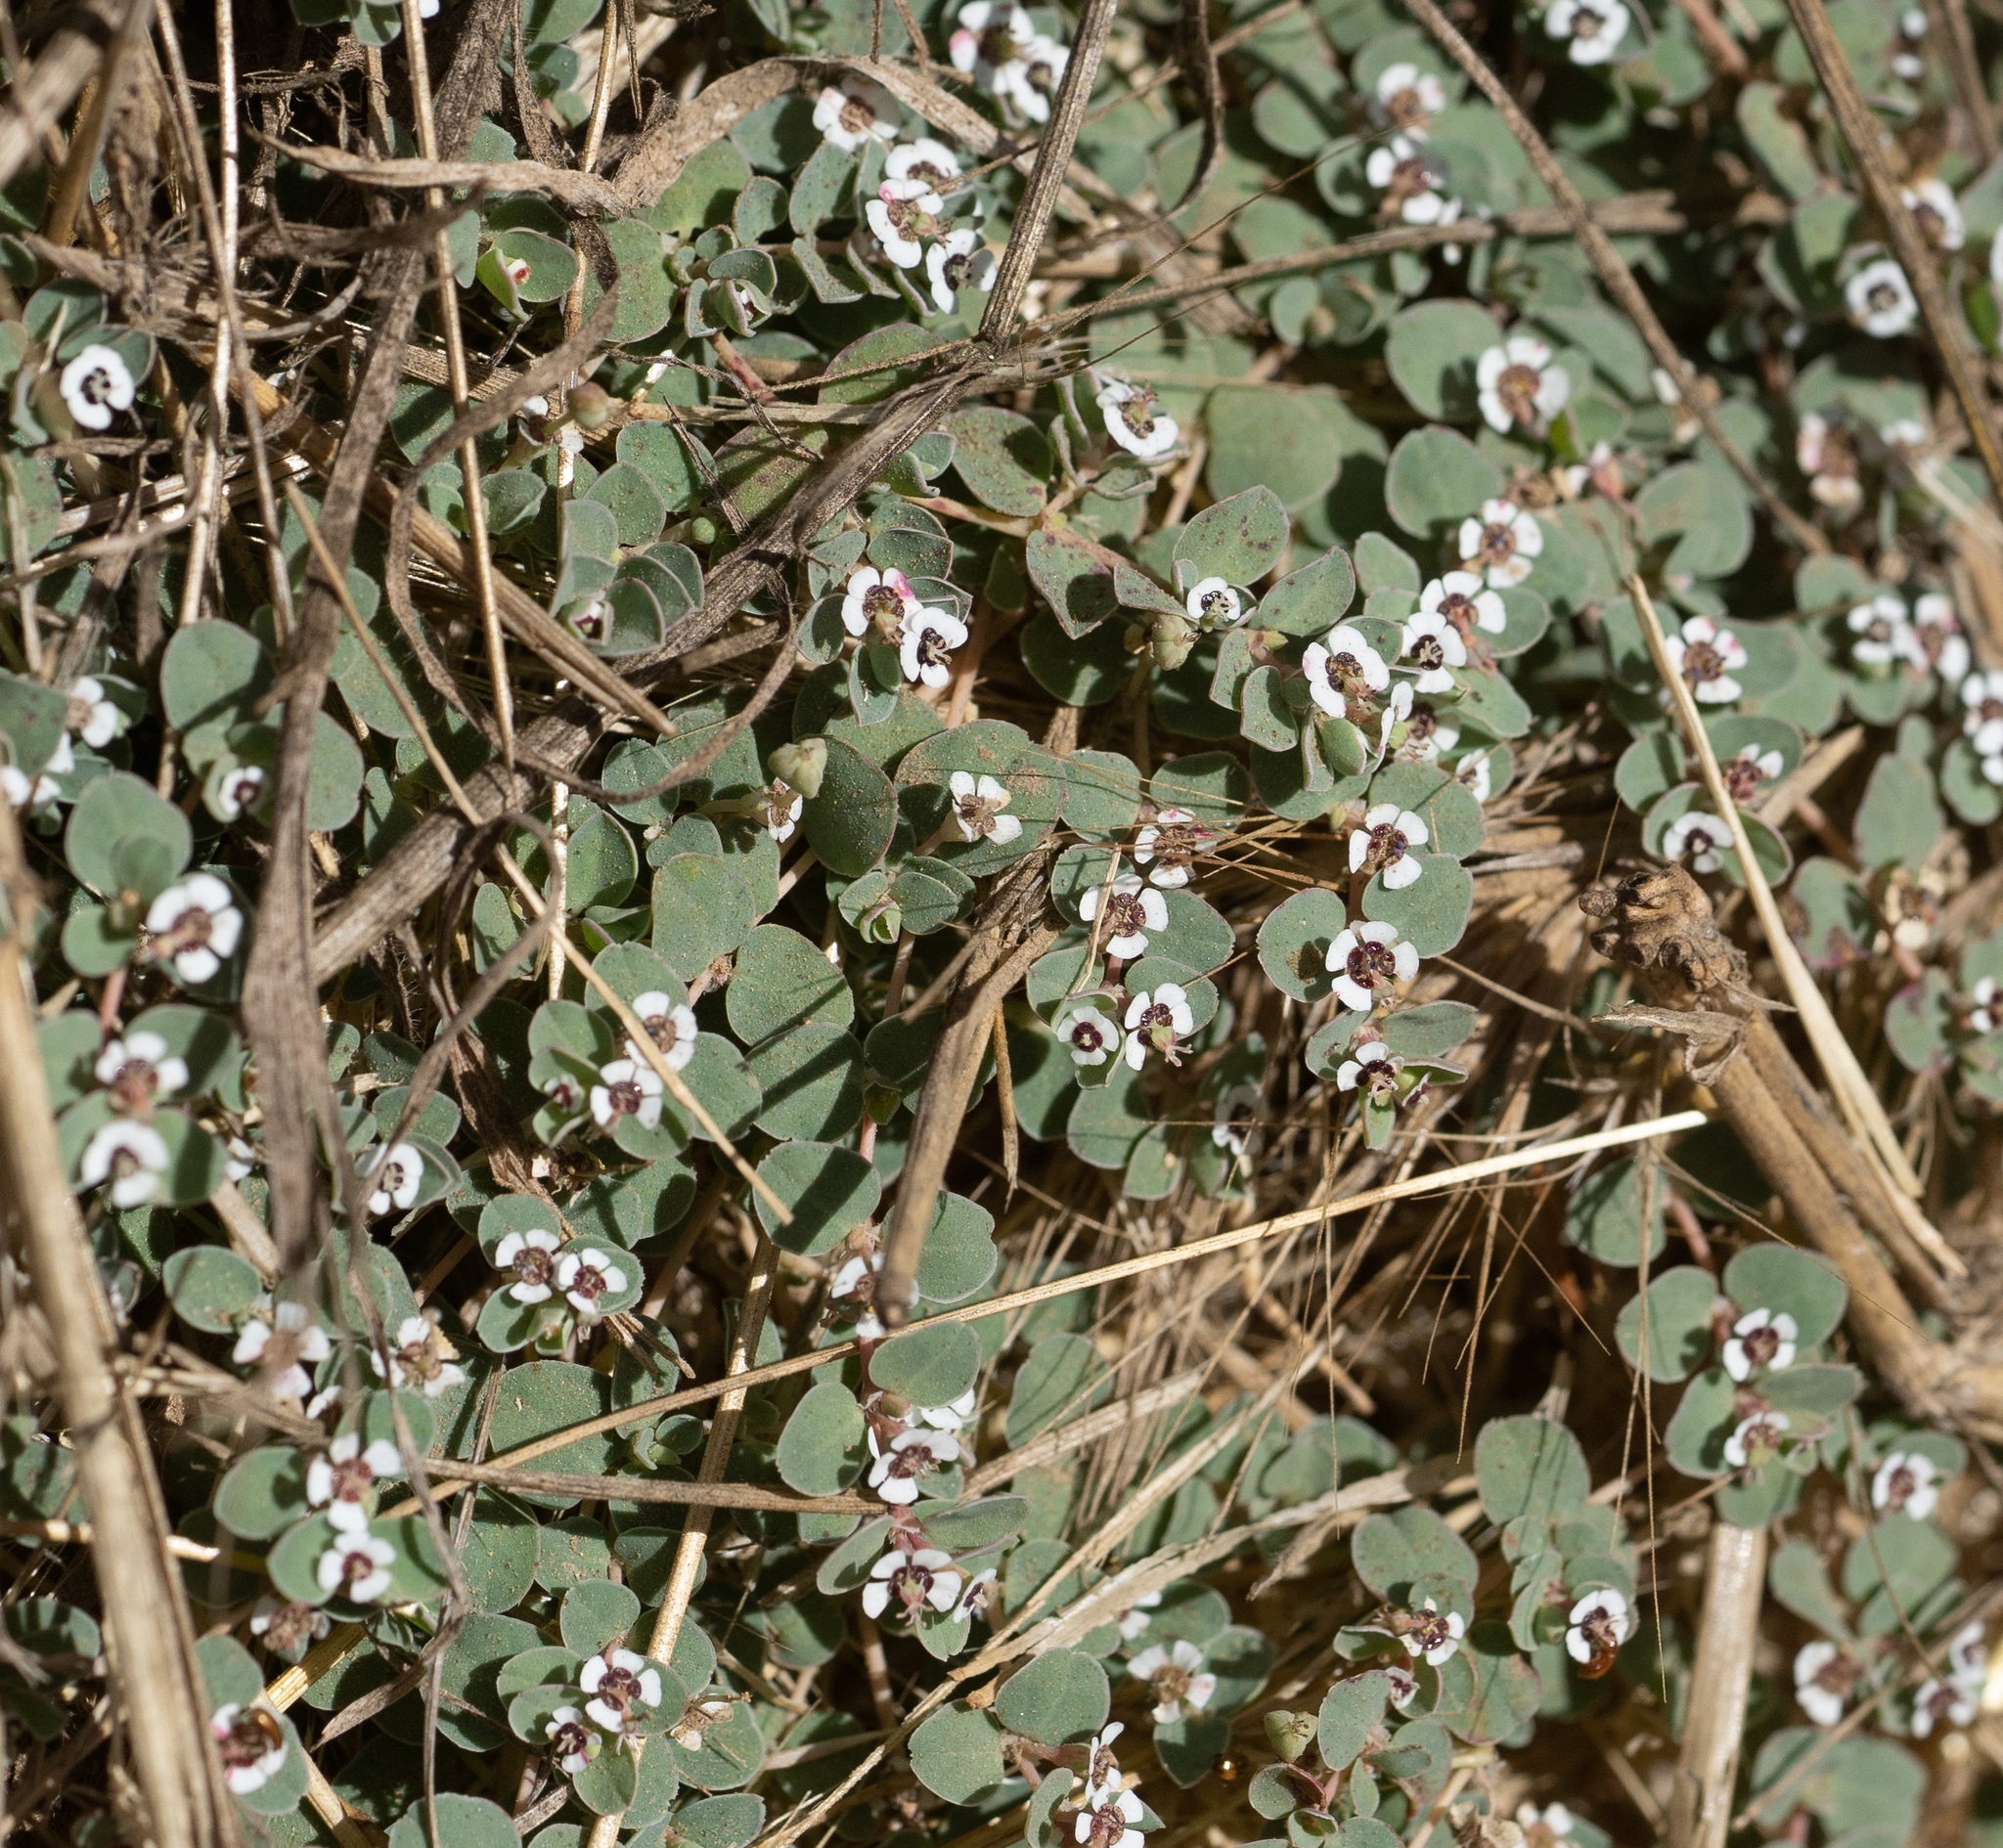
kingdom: Plantae
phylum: Tracheophyta
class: Magnoliopsida
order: Malpighiales
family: Euphorbiaceae
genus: Euphorbia
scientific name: Euphorbia albomarginata
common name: Whitemargin sandmat
